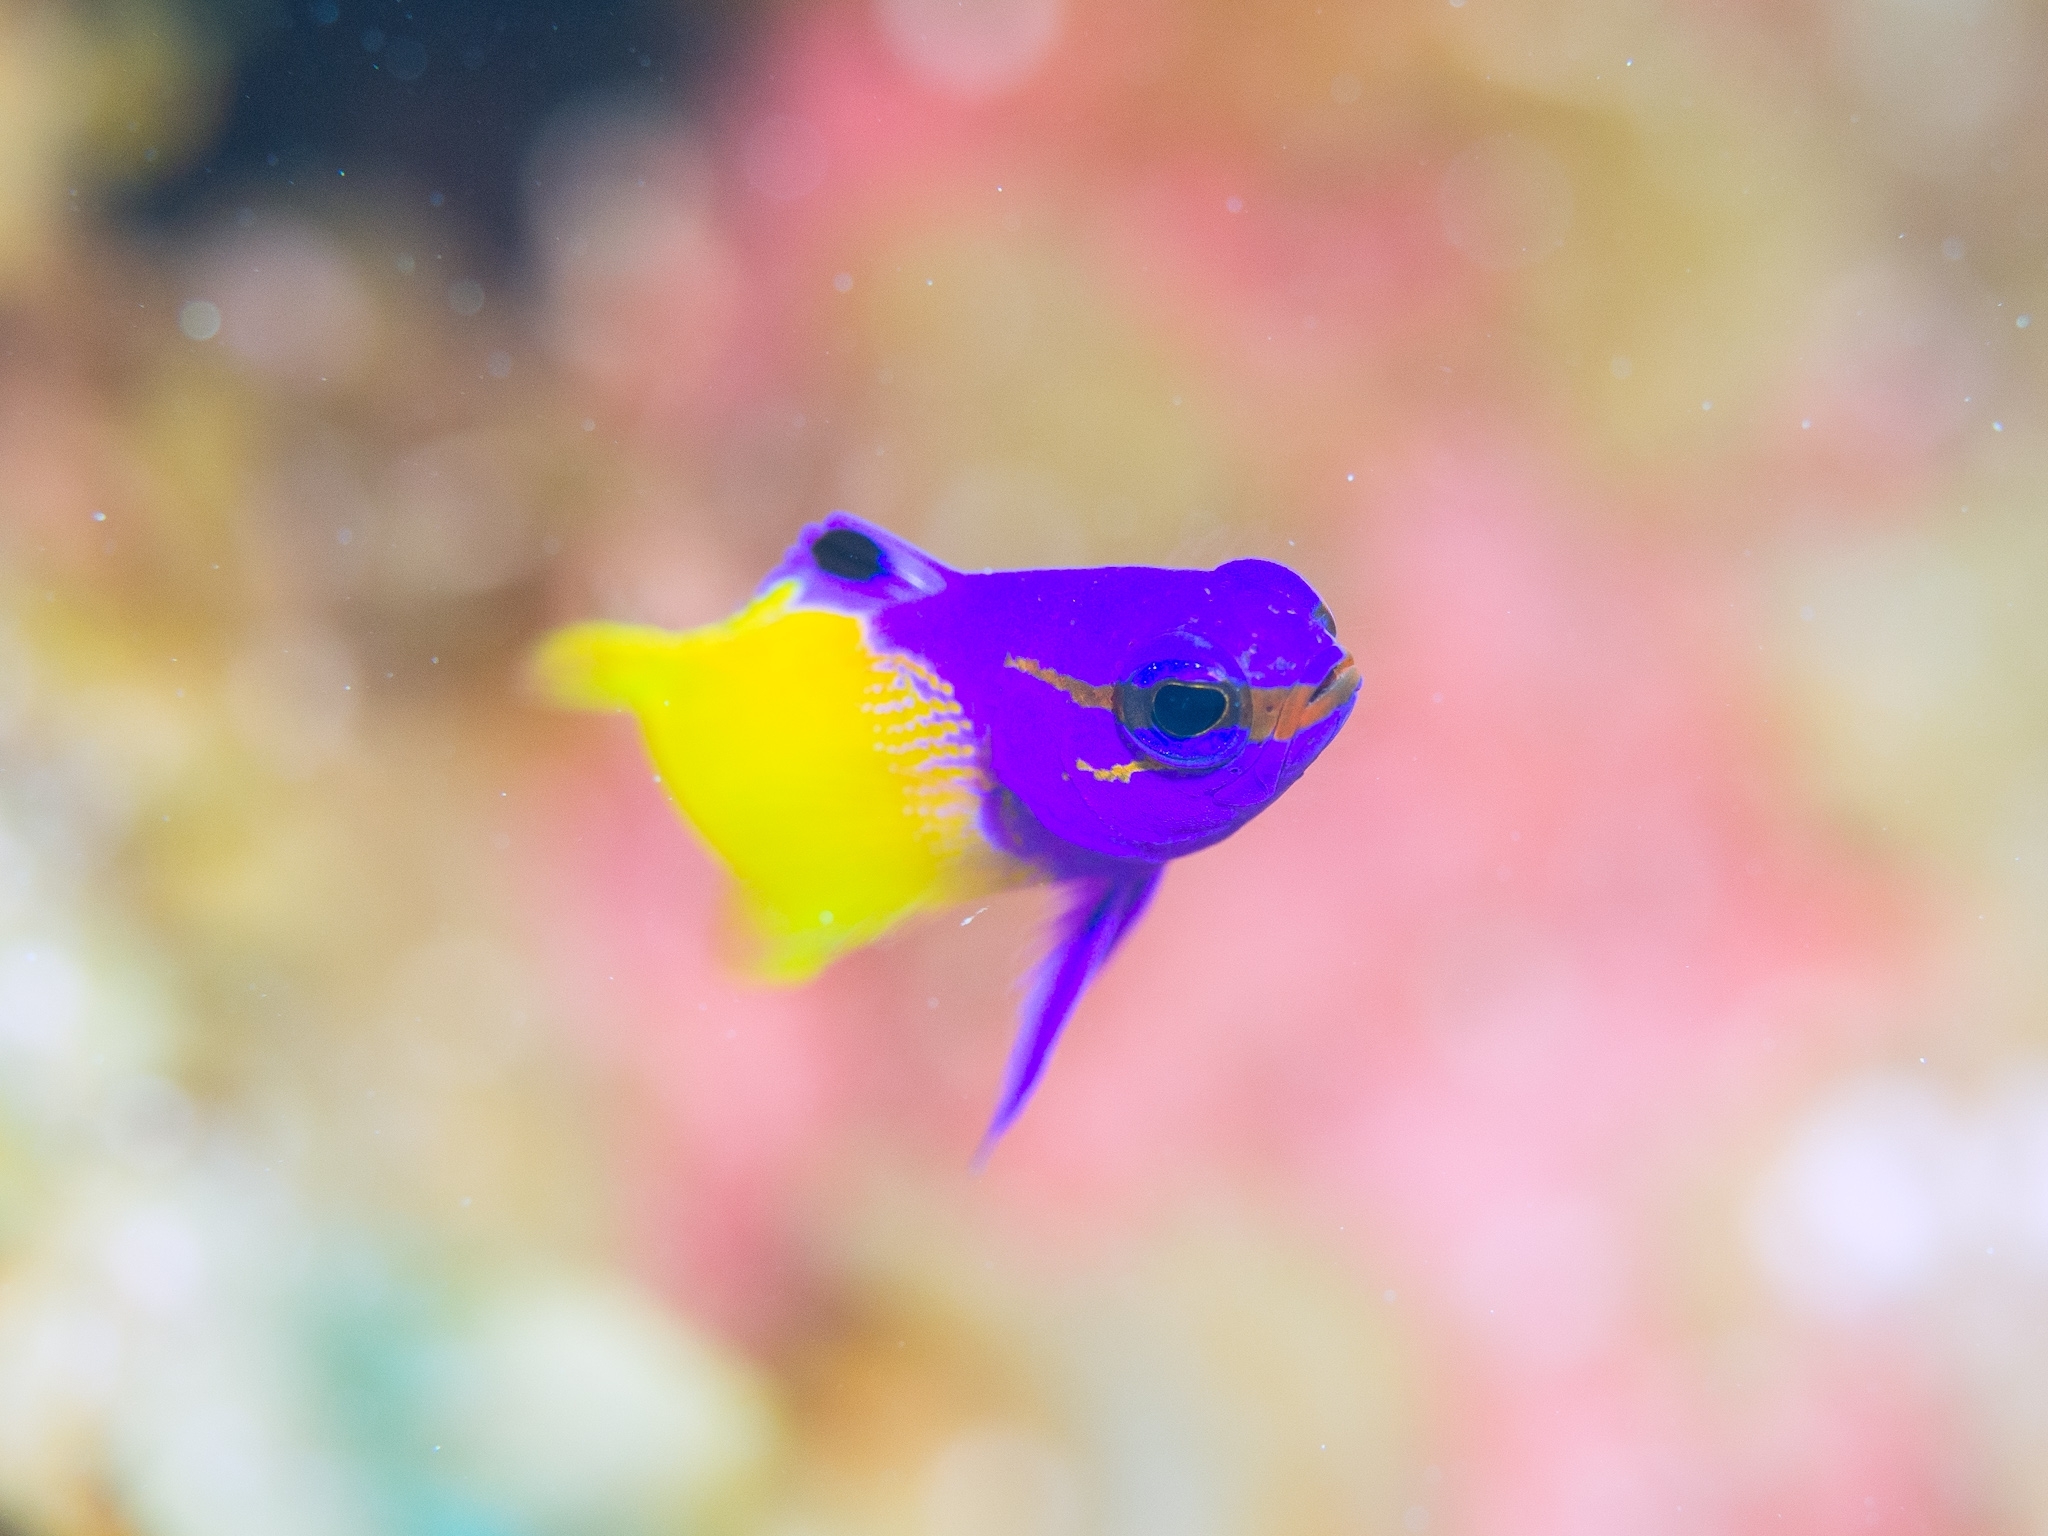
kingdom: Animalia
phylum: Chordata
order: Perciformes
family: Grammatidae
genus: Gramma
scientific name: Gramma loreto
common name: Fairy basslet
